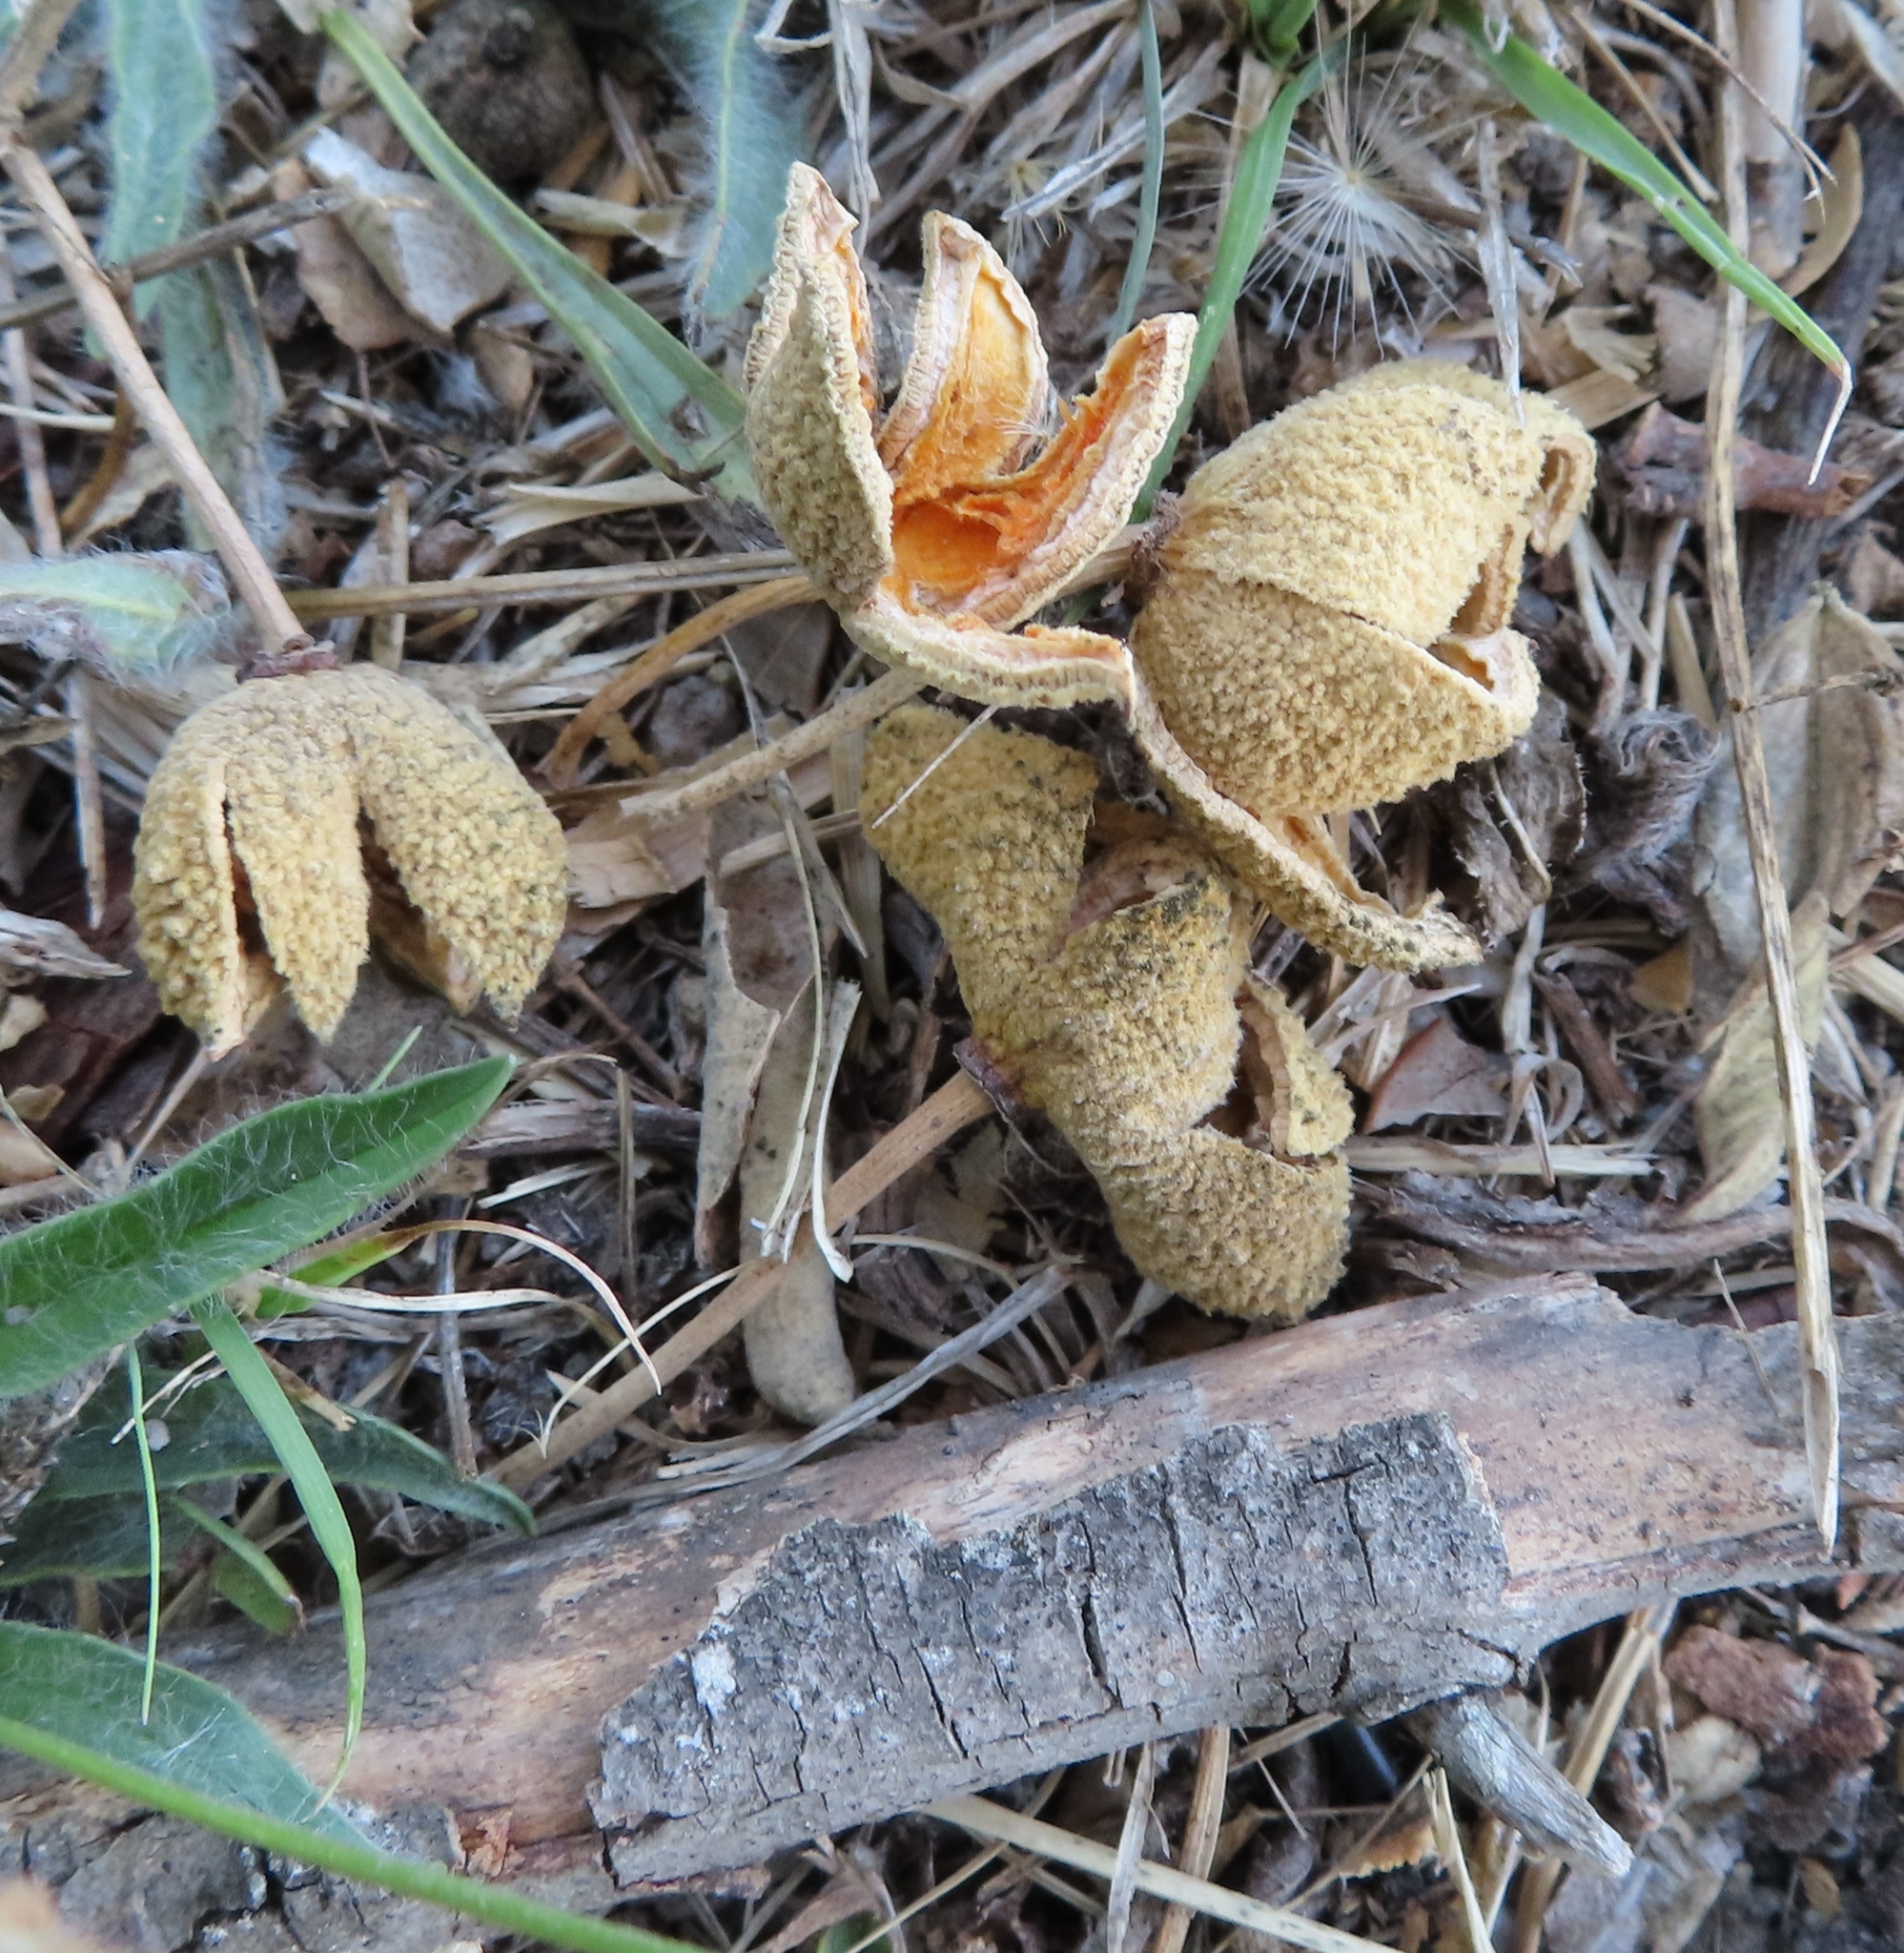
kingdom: Plantae
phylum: Tracheophyta
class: Magnoliopsida
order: Malpighiales
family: Achariaceae
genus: Kiggelaria
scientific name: Kiggelaria africana
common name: Wild peach
